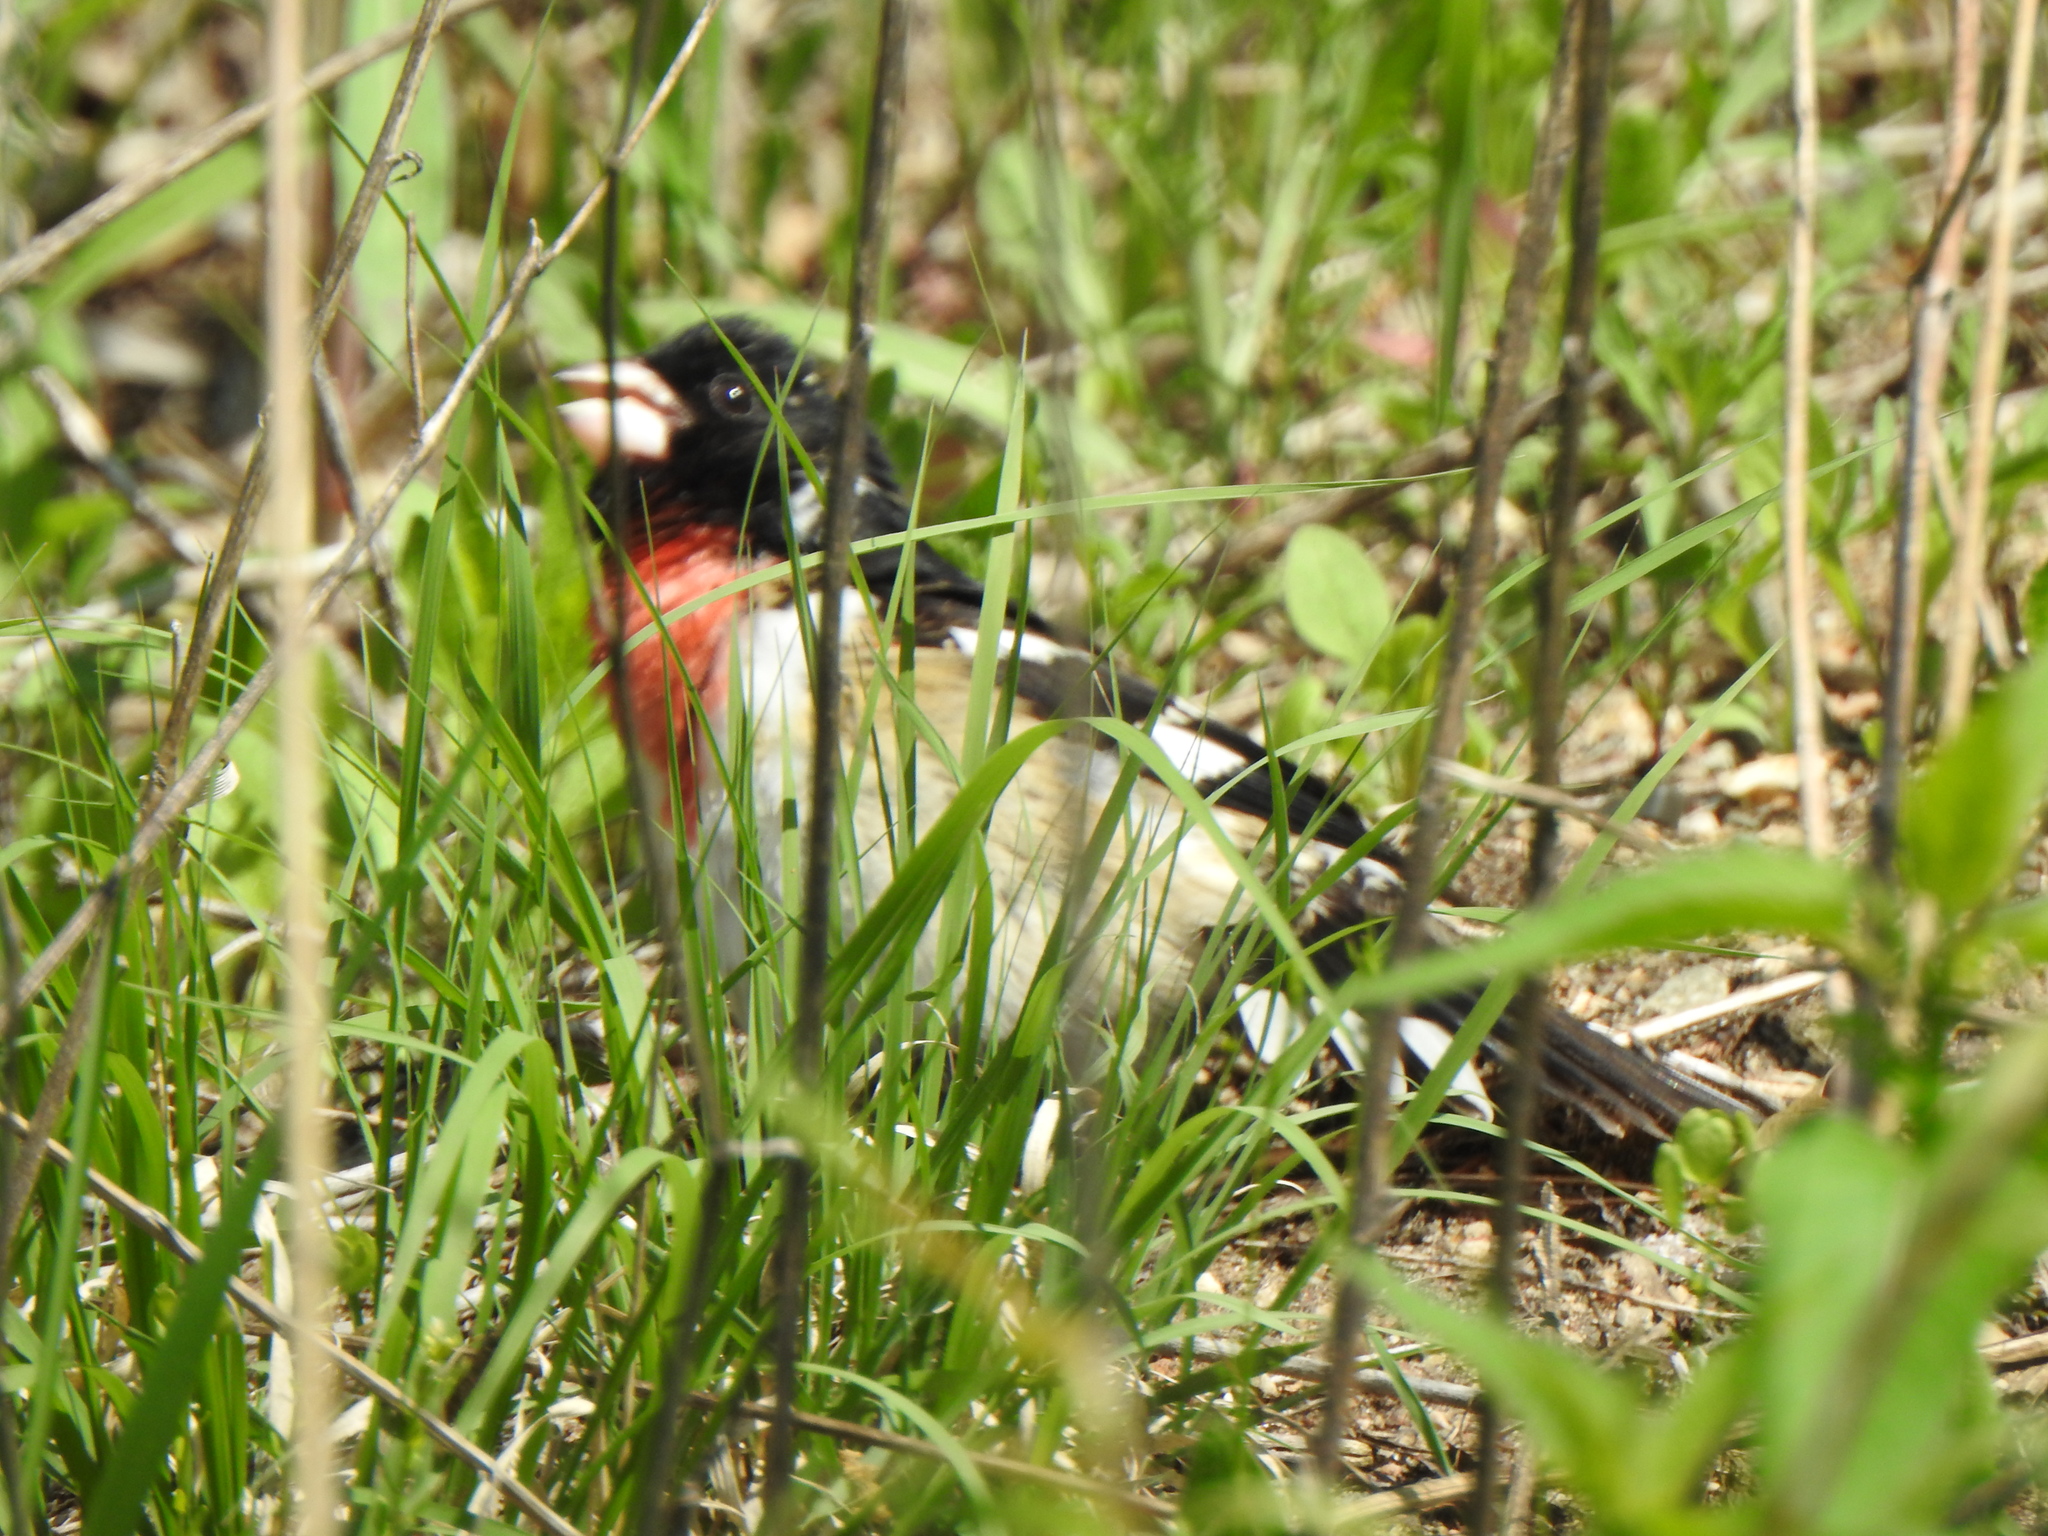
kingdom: Animalia
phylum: Chordata
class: Aves
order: Passeriformes
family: Cardinalidae
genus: Pheucticus
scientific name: Pheucticus ludovicianus
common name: Rose-breasted grosbeak
